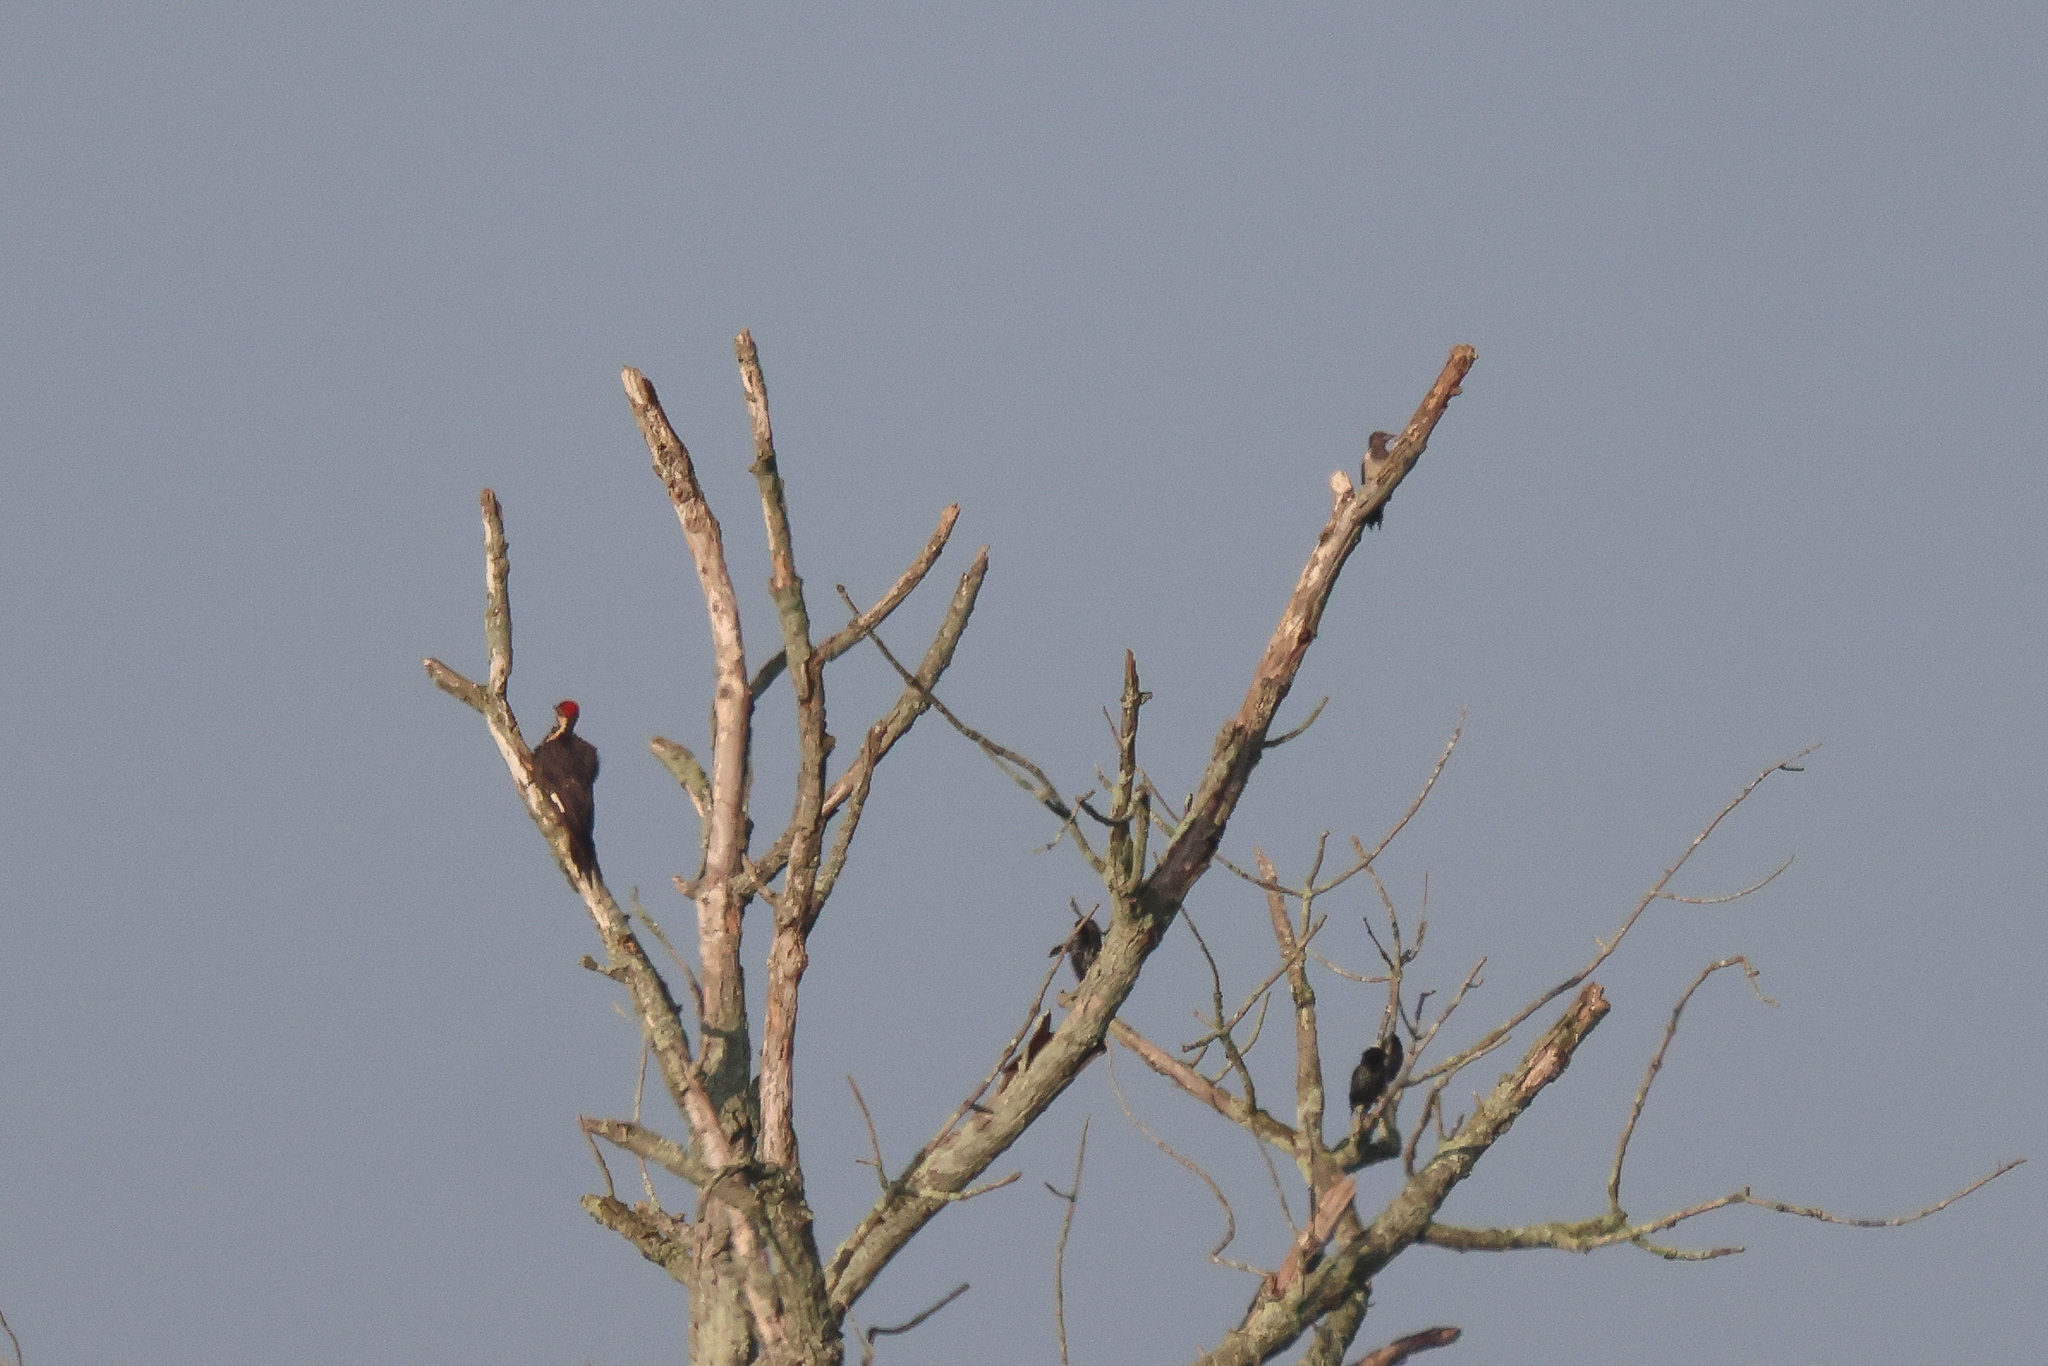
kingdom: Animalia
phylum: Chordata
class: Aves
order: Passeriformes
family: Sturnidae
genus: Sturnus
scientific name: Sturnus vulgaris
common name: Common starling
